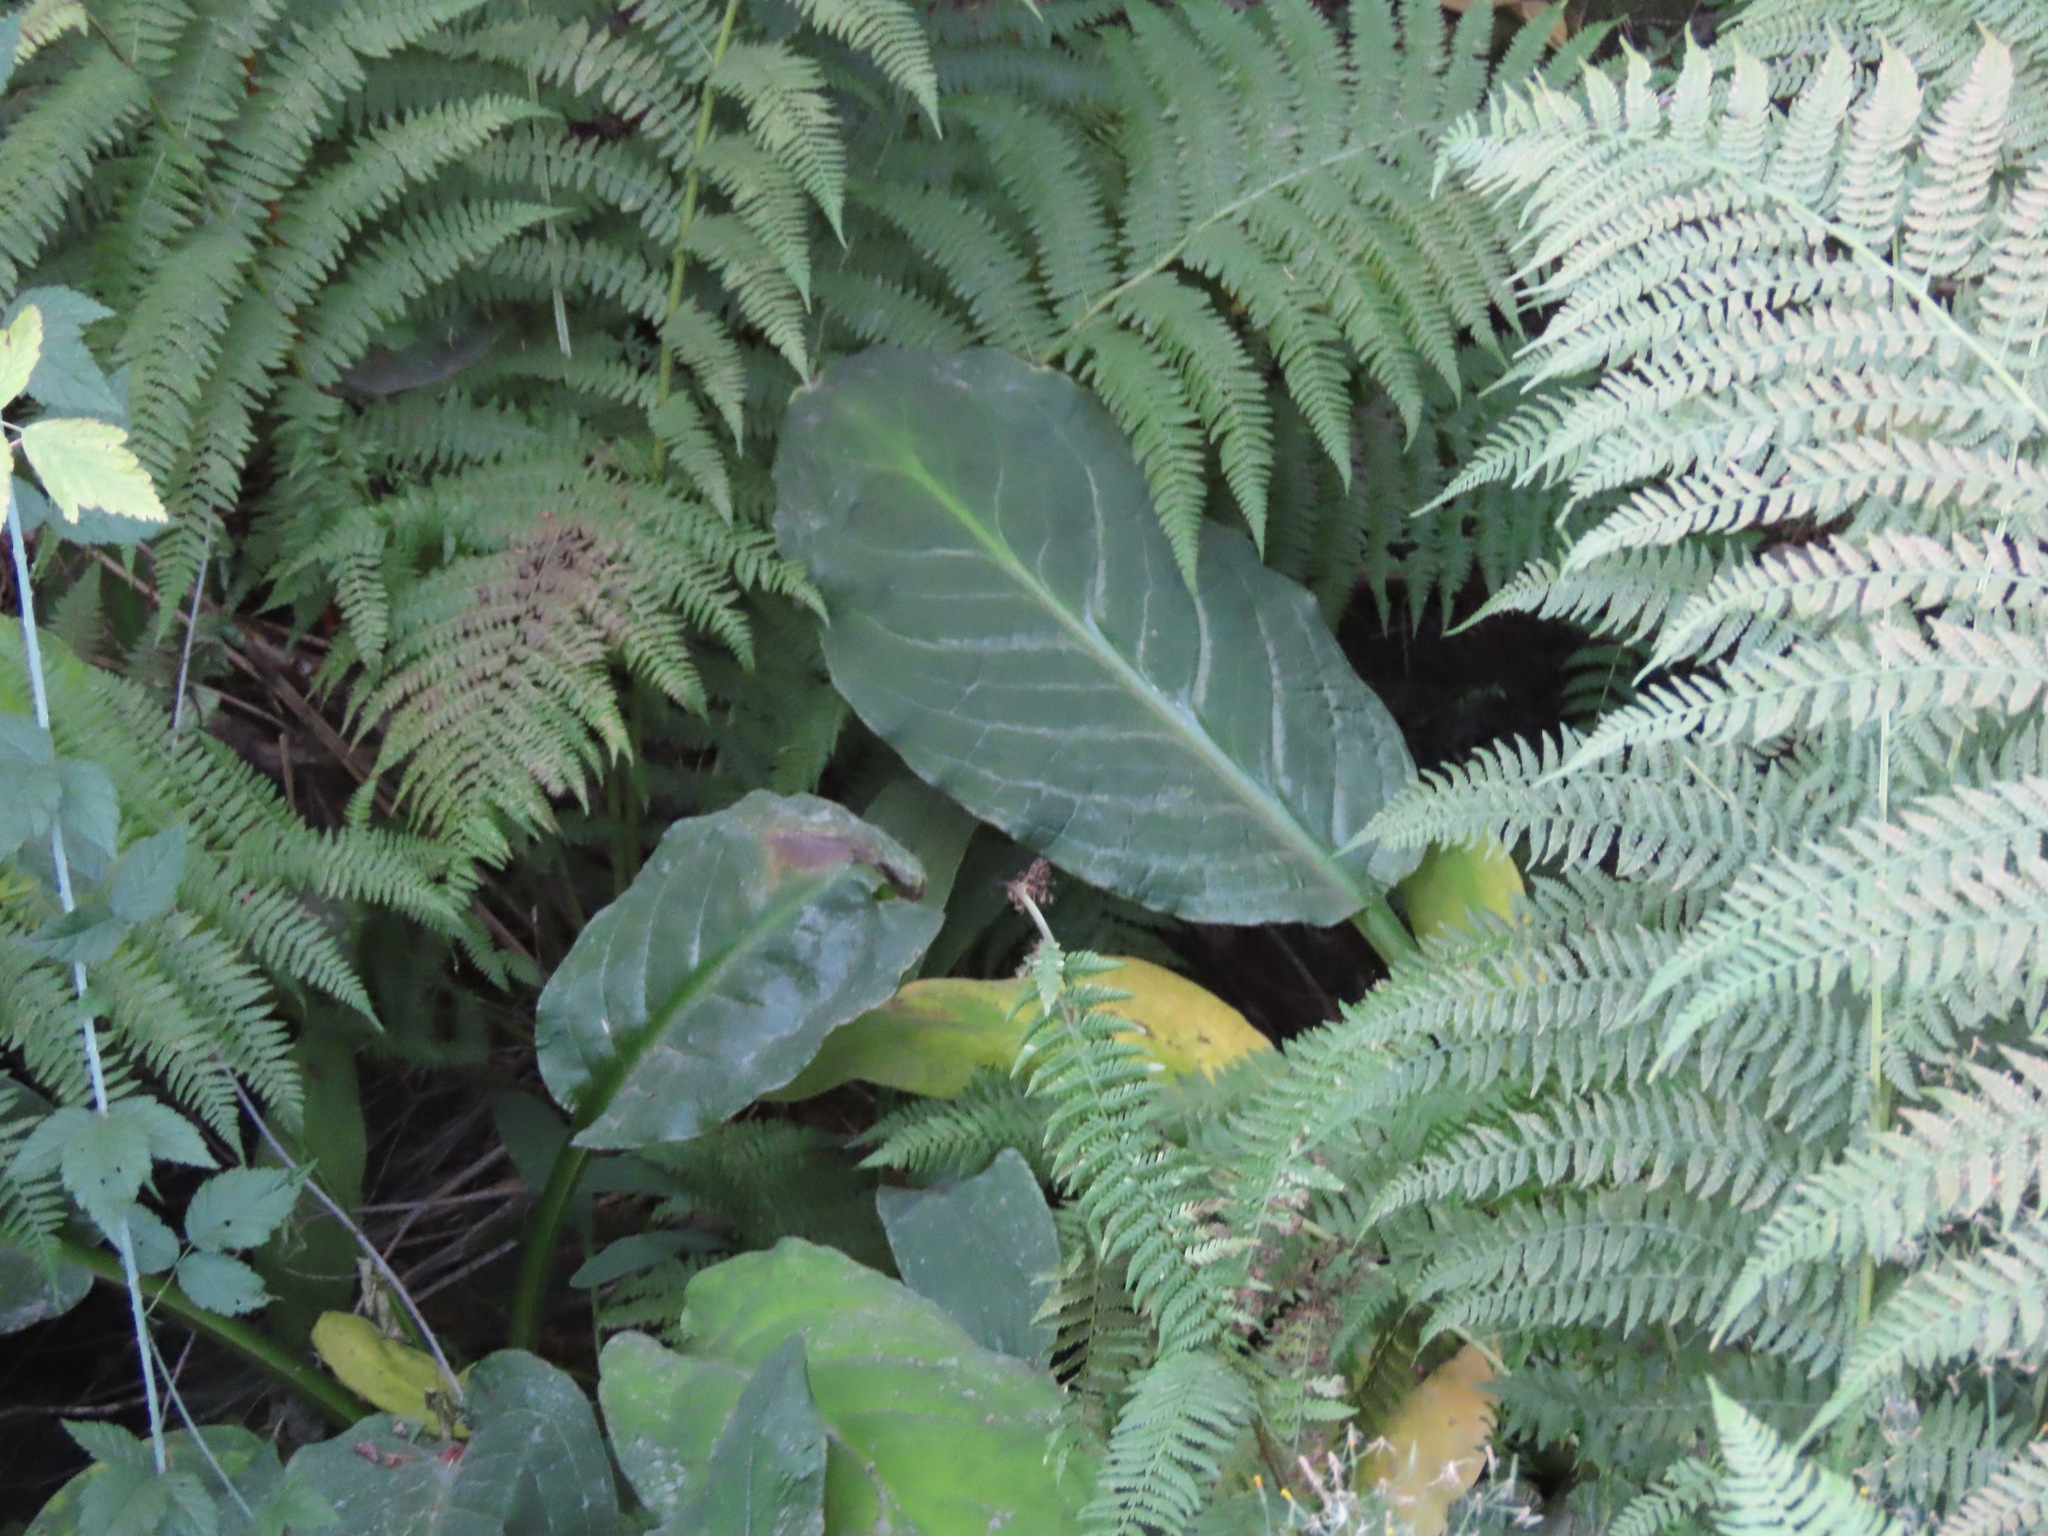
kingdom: Plantae
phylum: Tracheophyta
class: Liliopsida
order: Alismatales
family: Araceae
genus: Lysichiton
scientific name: Lysichiton americanus
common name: American skunk cabbage
